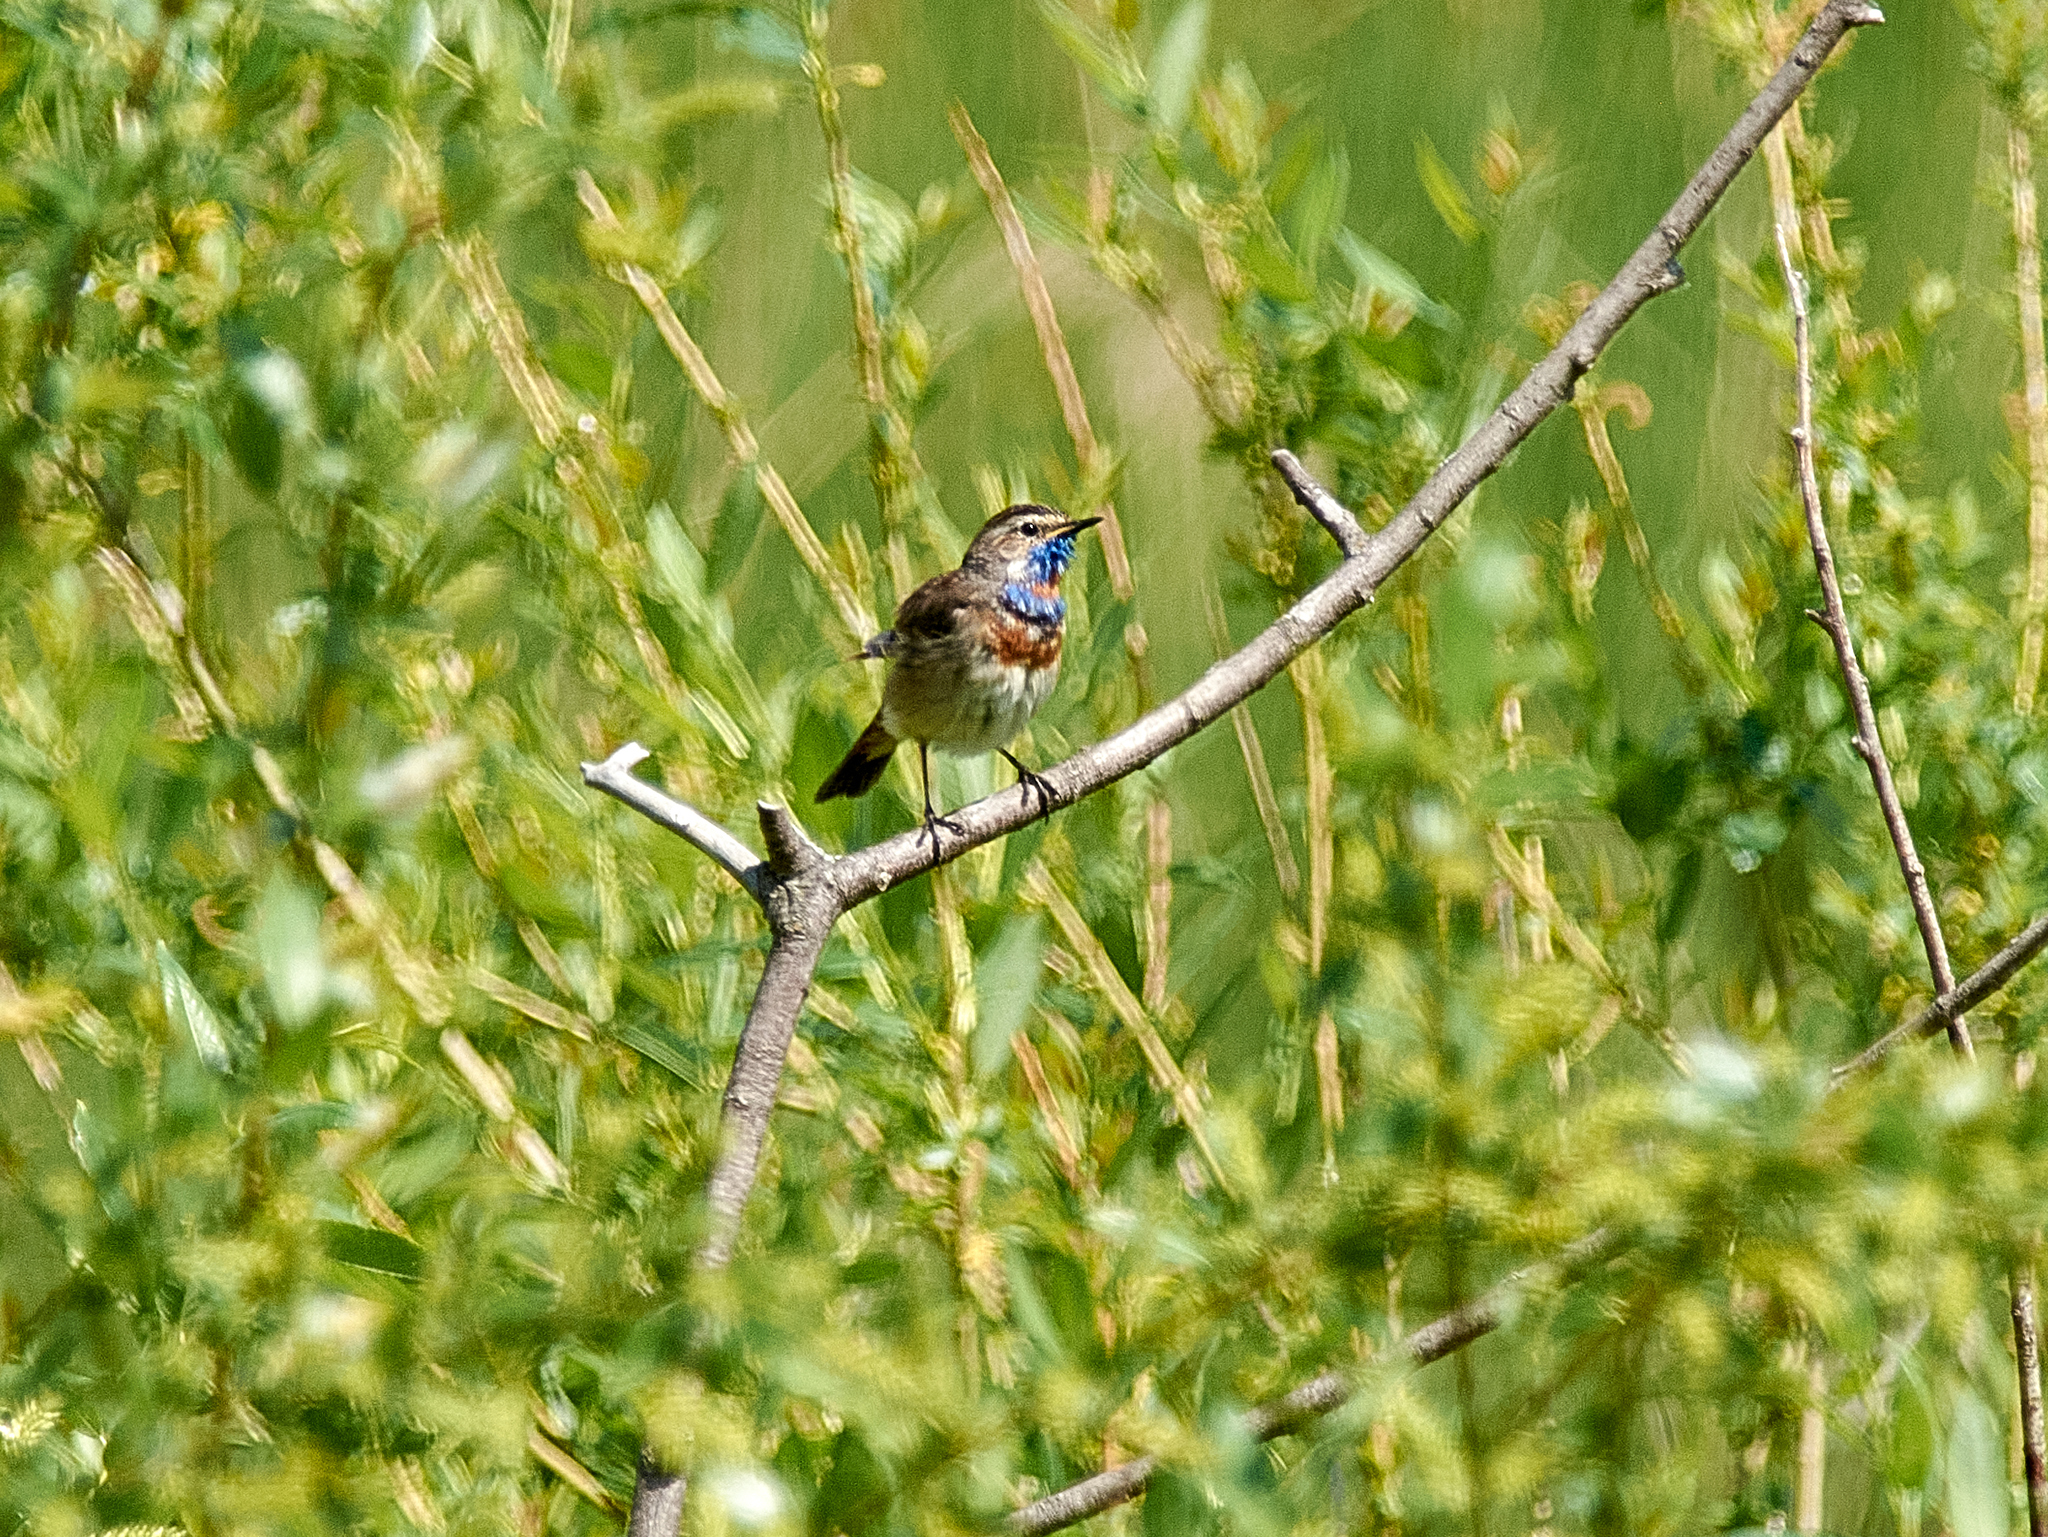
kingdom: Animalia
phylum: Chordata
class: Aves
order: Passeriformes
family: Muscicapidae
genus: Luscinia
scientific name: Luscinia svecica
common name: Bluethroat
